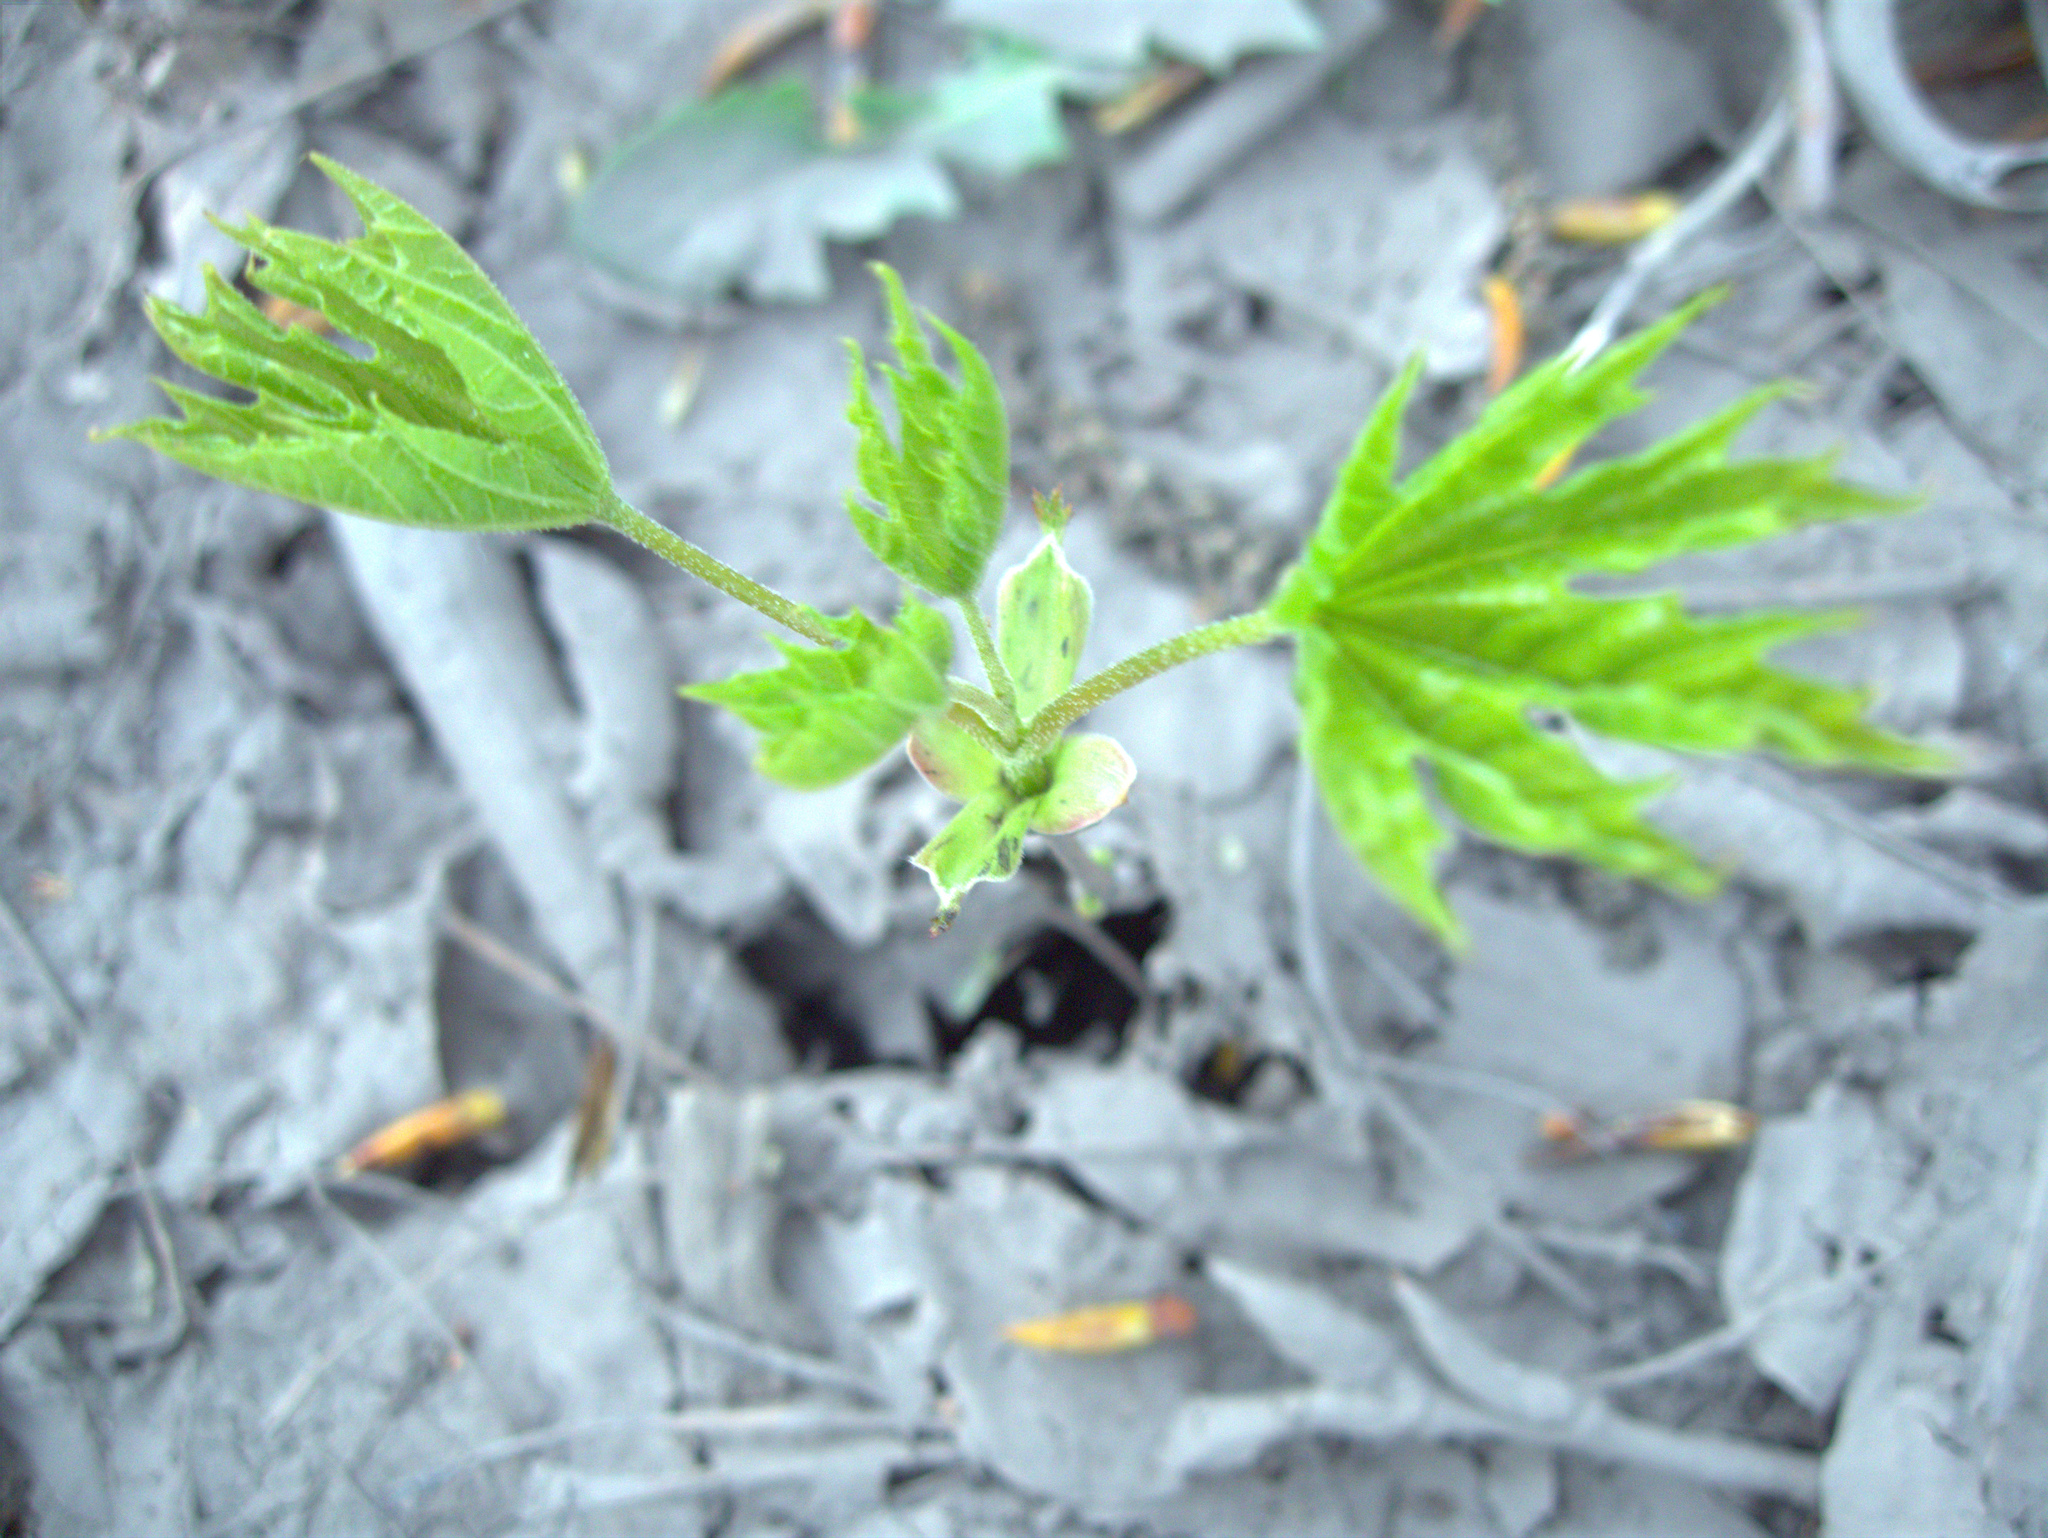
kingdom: Plantae
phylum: Tracheophyta
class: Magnoliopsida
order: Sapindales
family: Sapindaceae
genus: Acer
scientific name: Acer platanoides
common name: Norway maple
